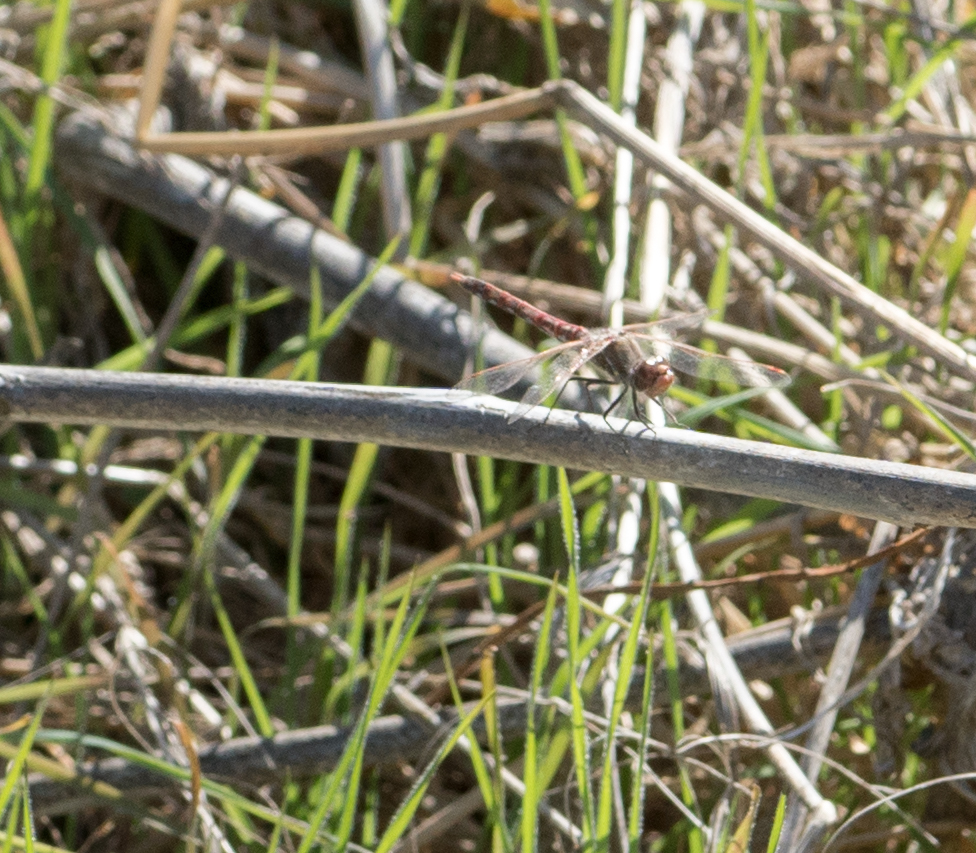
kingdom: Animalia
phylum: Arthropoda
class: Insecta
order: Odonata
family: Libellulidae
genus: Sympetrum
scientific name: Sympetrum corruptum
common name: Variegated meadowhawk
